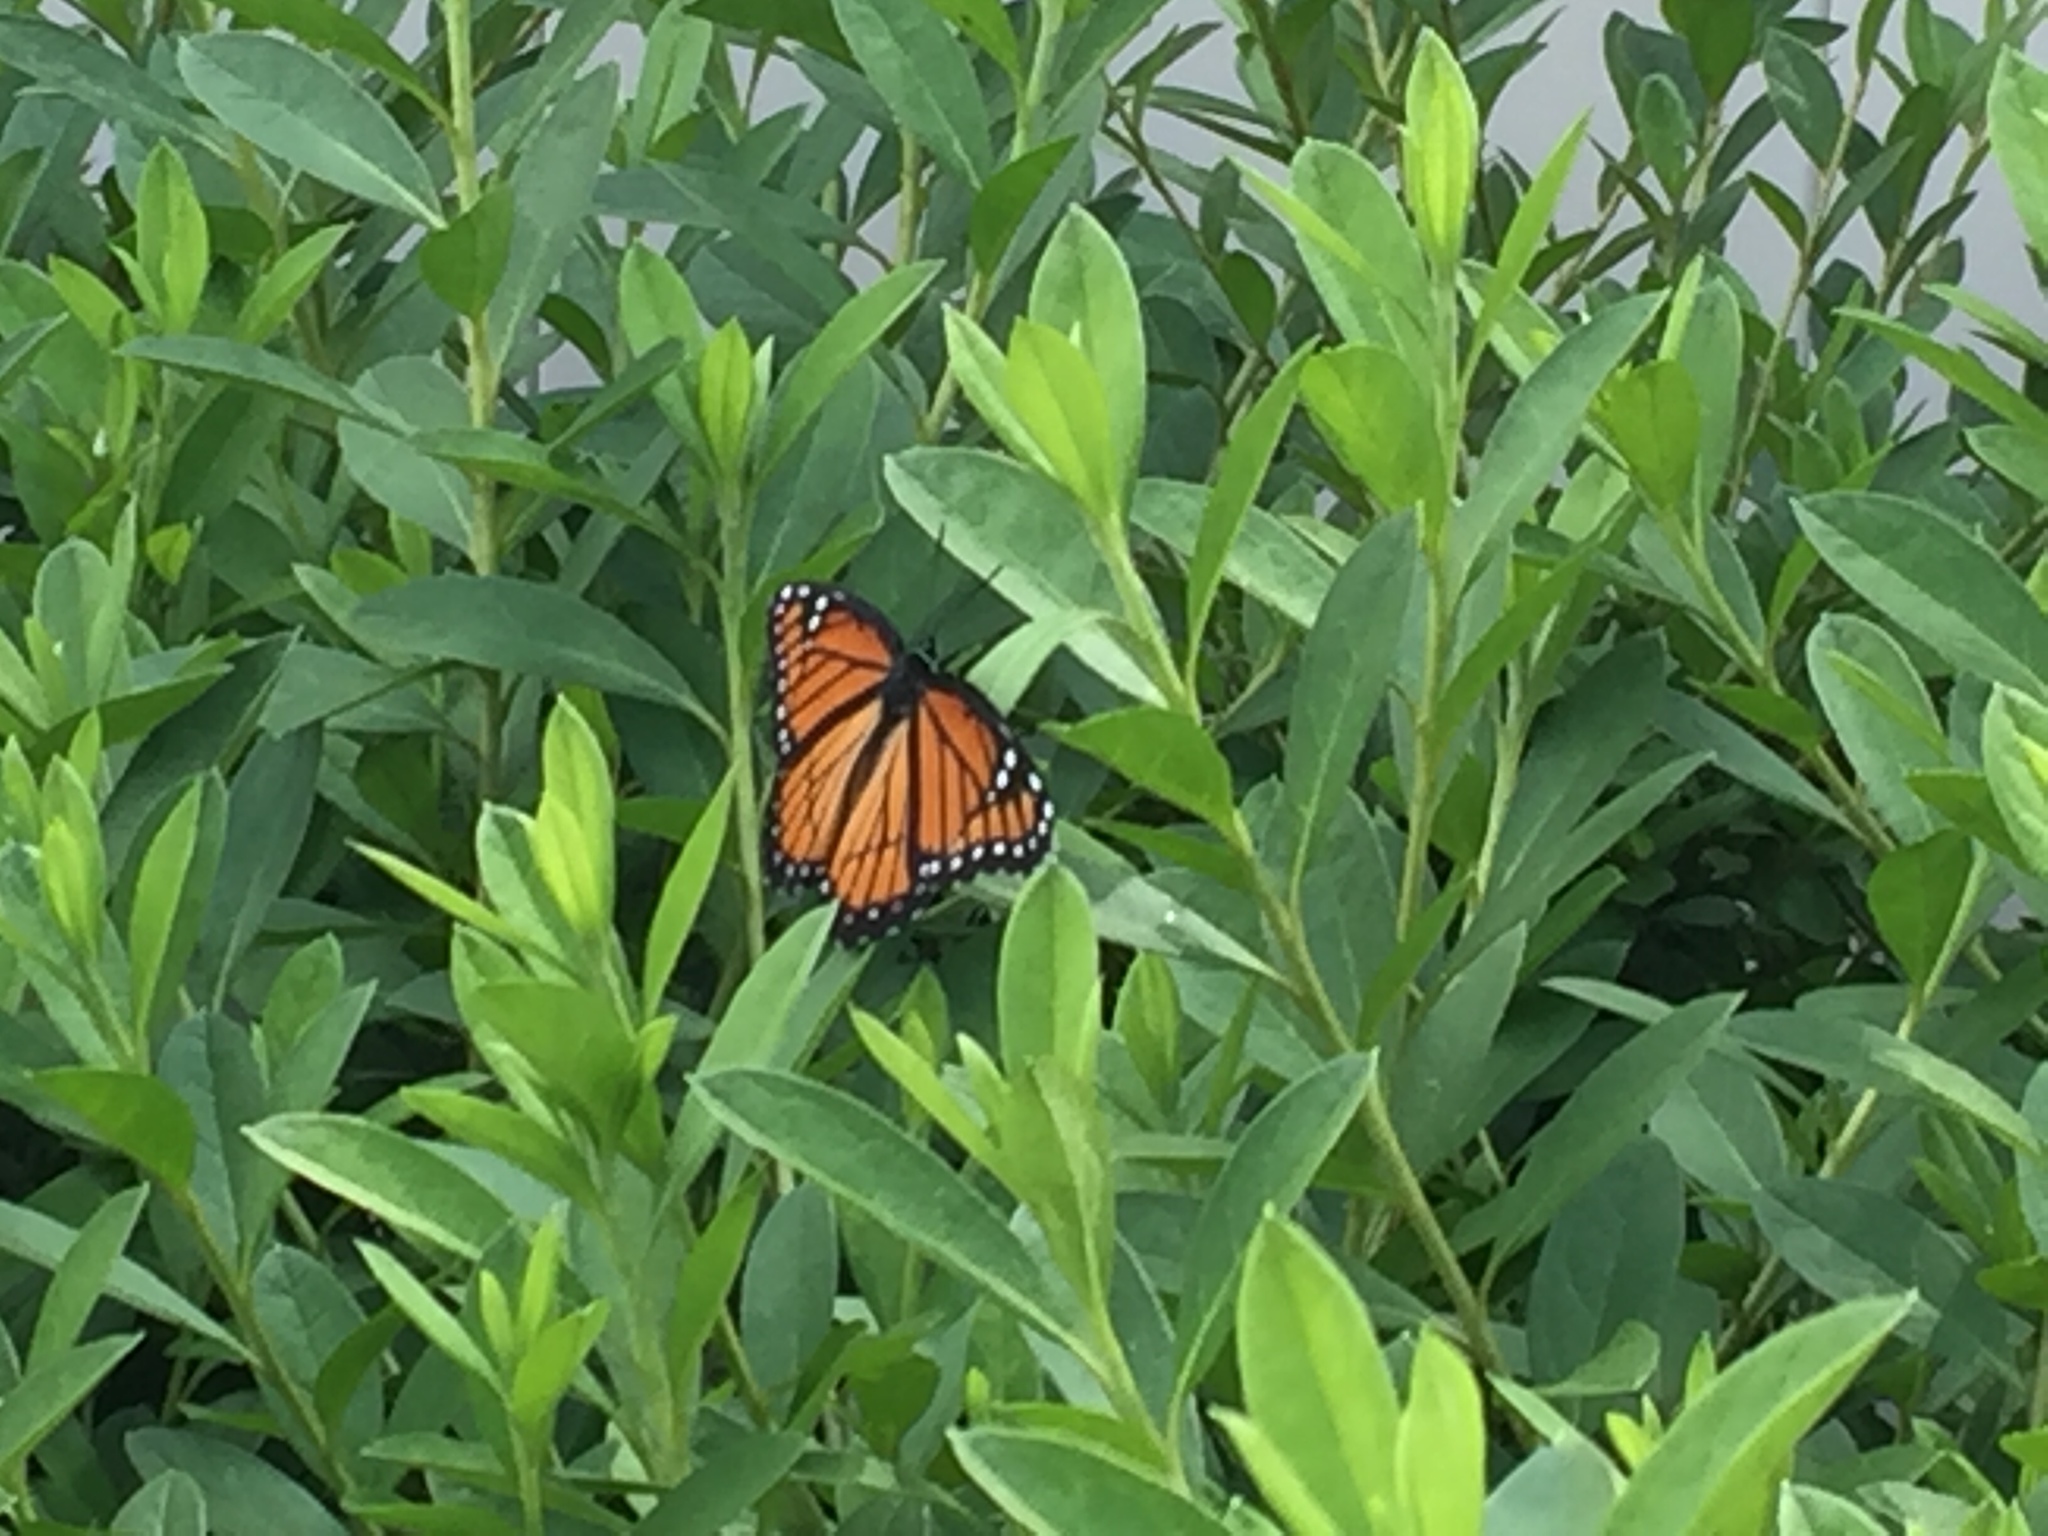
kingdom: Animalia
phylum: Arthropoda
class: Insecta
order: Lepidoptera
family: Nymphalidae
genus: Limenitis
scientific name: Limenitis archippus
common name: Viceroy
